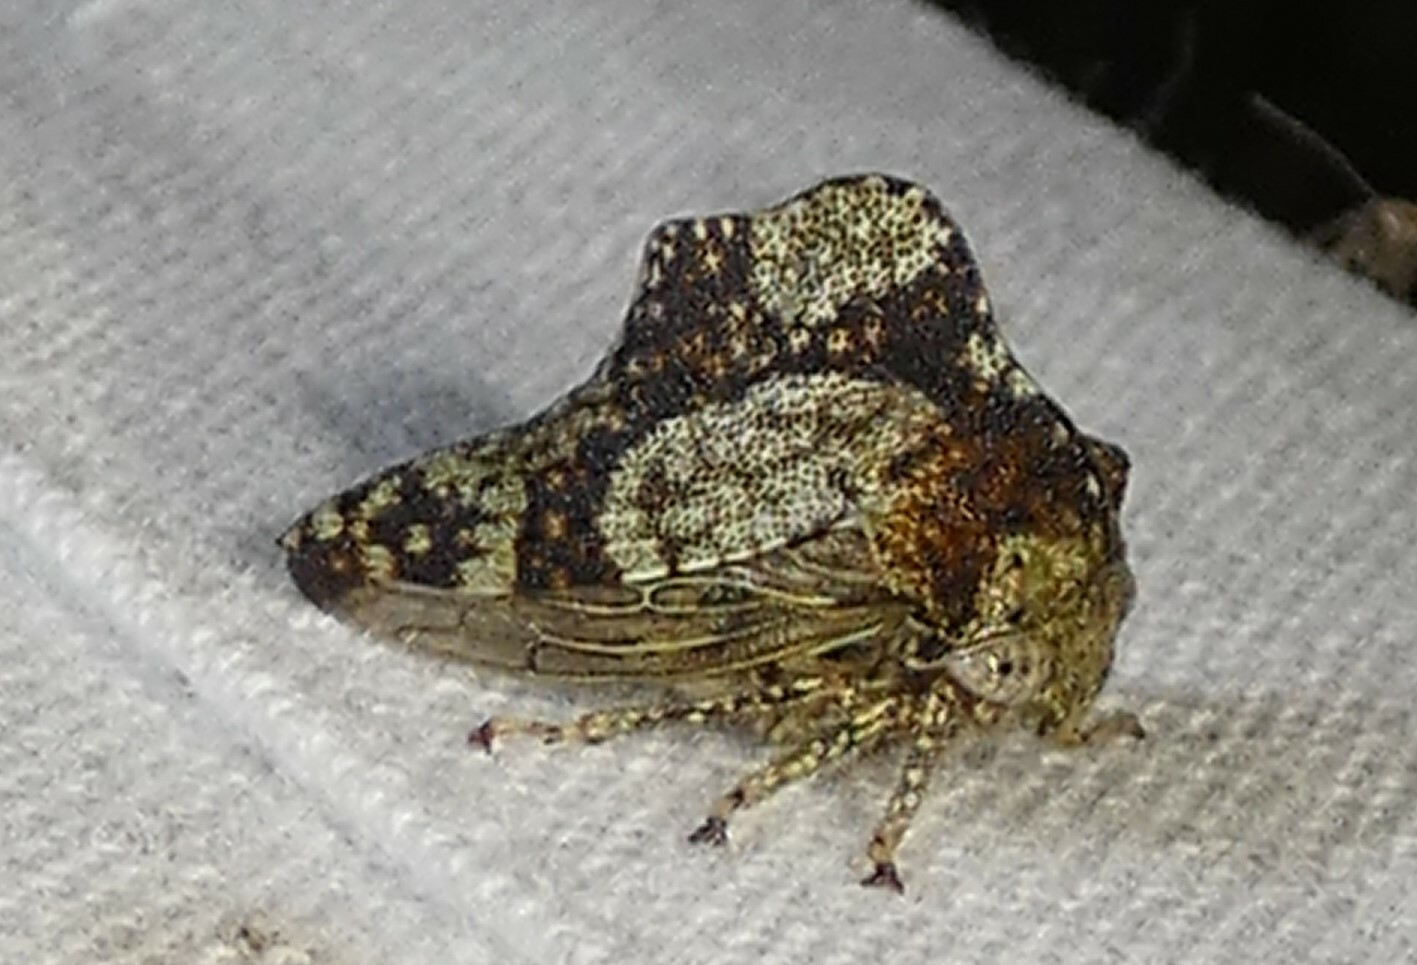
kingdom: Animalia
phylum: Arthropoda
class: Insecta
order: Hemiptera
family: Membracidae
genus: Heliria
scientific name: Heliria cornutula
